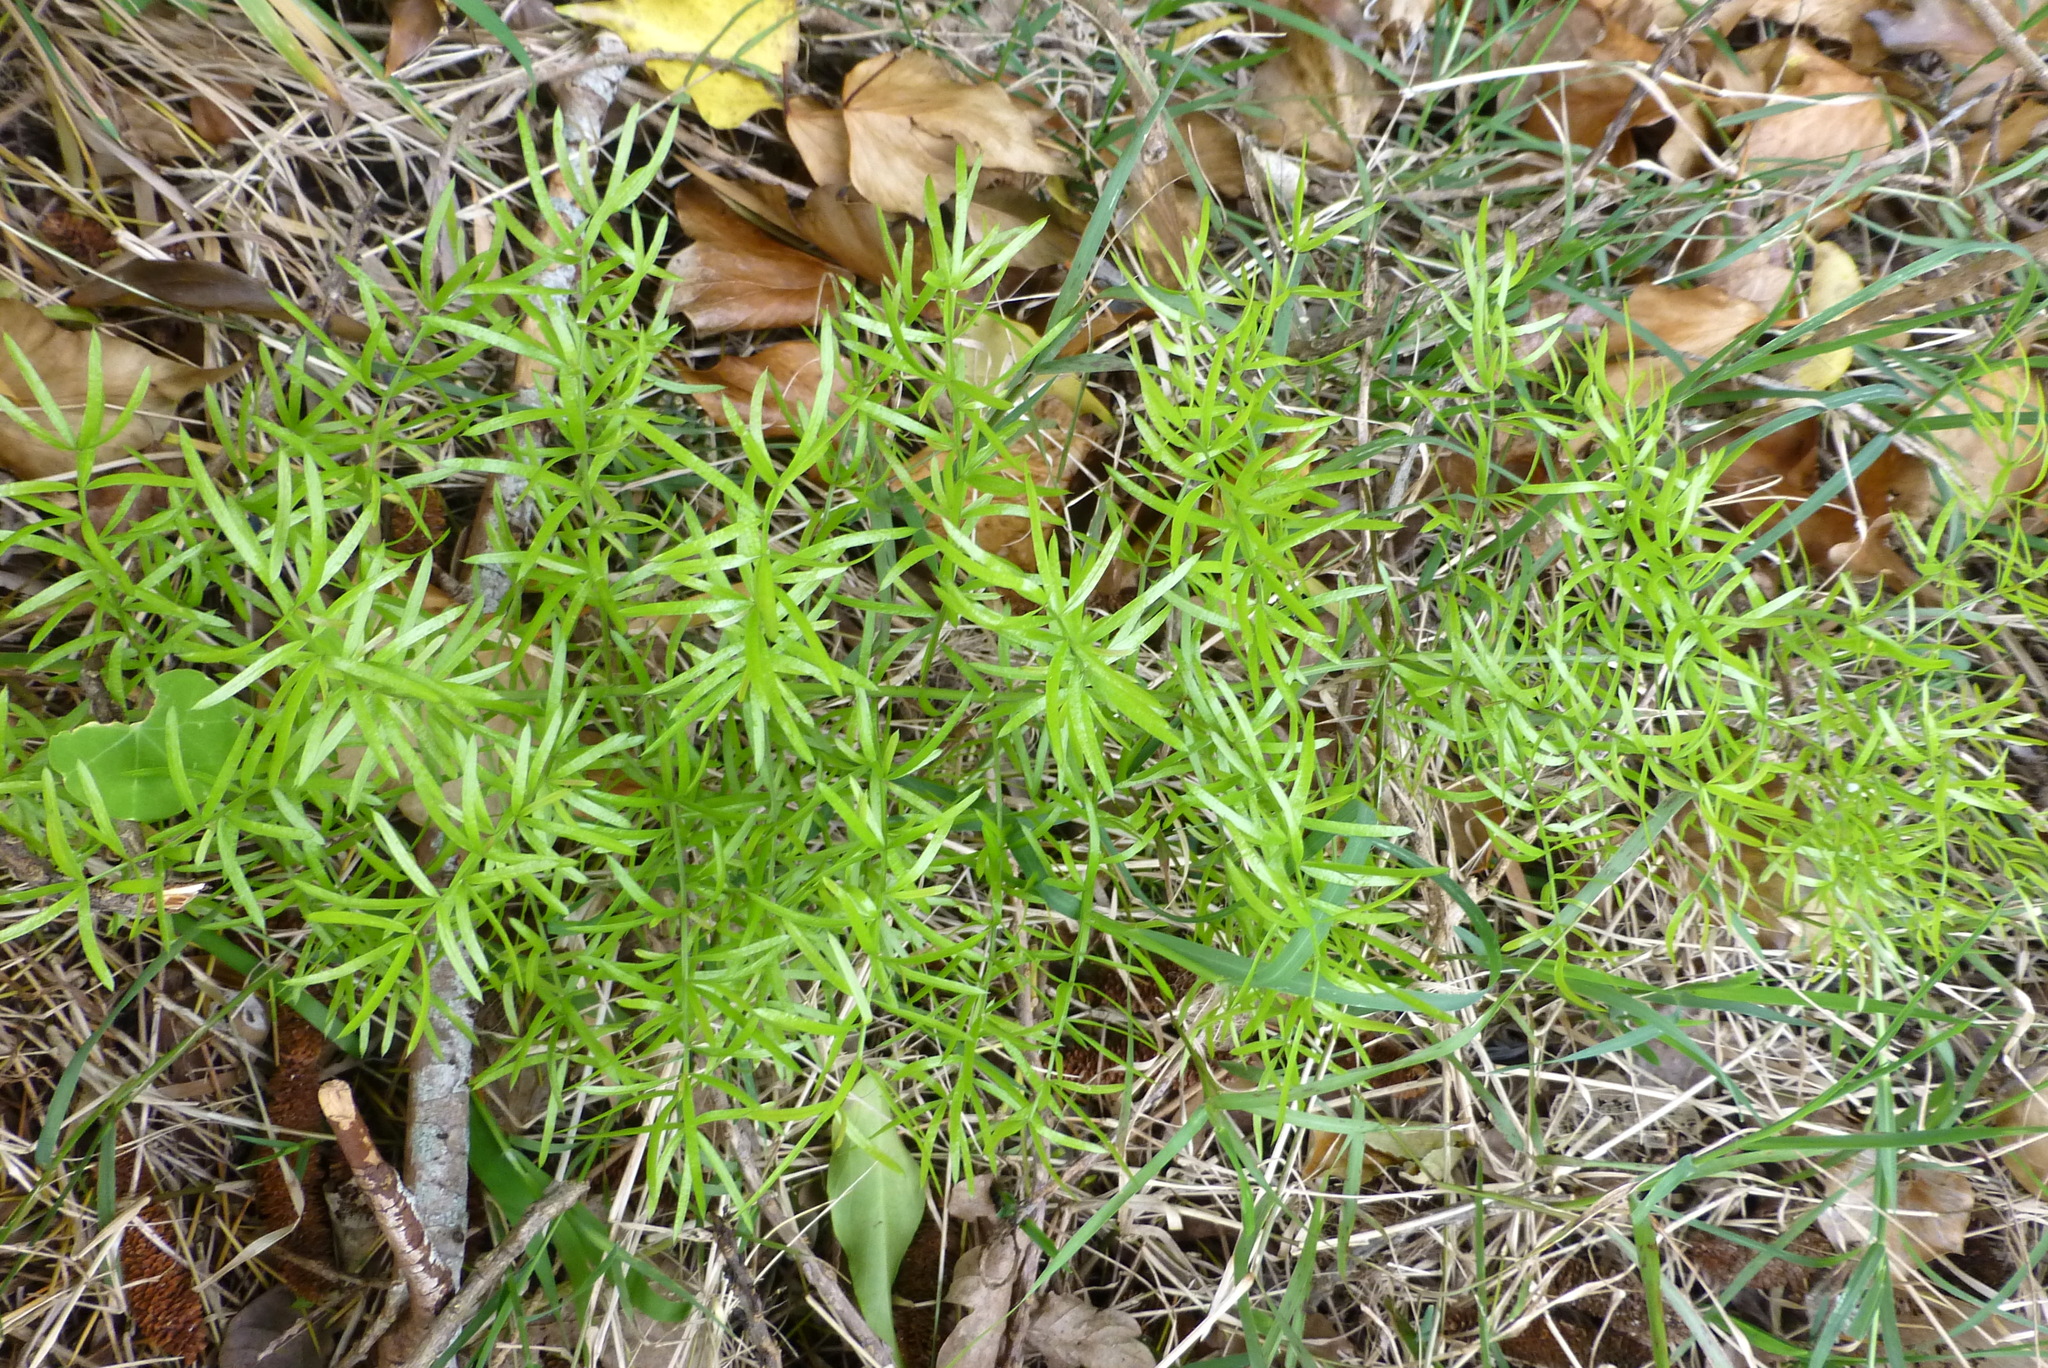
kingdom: Plantae
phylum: Tracheophyta
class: Liliopsida
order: Asparagales
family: Asparagaceae
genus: Asparagus
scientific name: Asparagus aethiopicus
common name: Sprenger's asparagus fern
